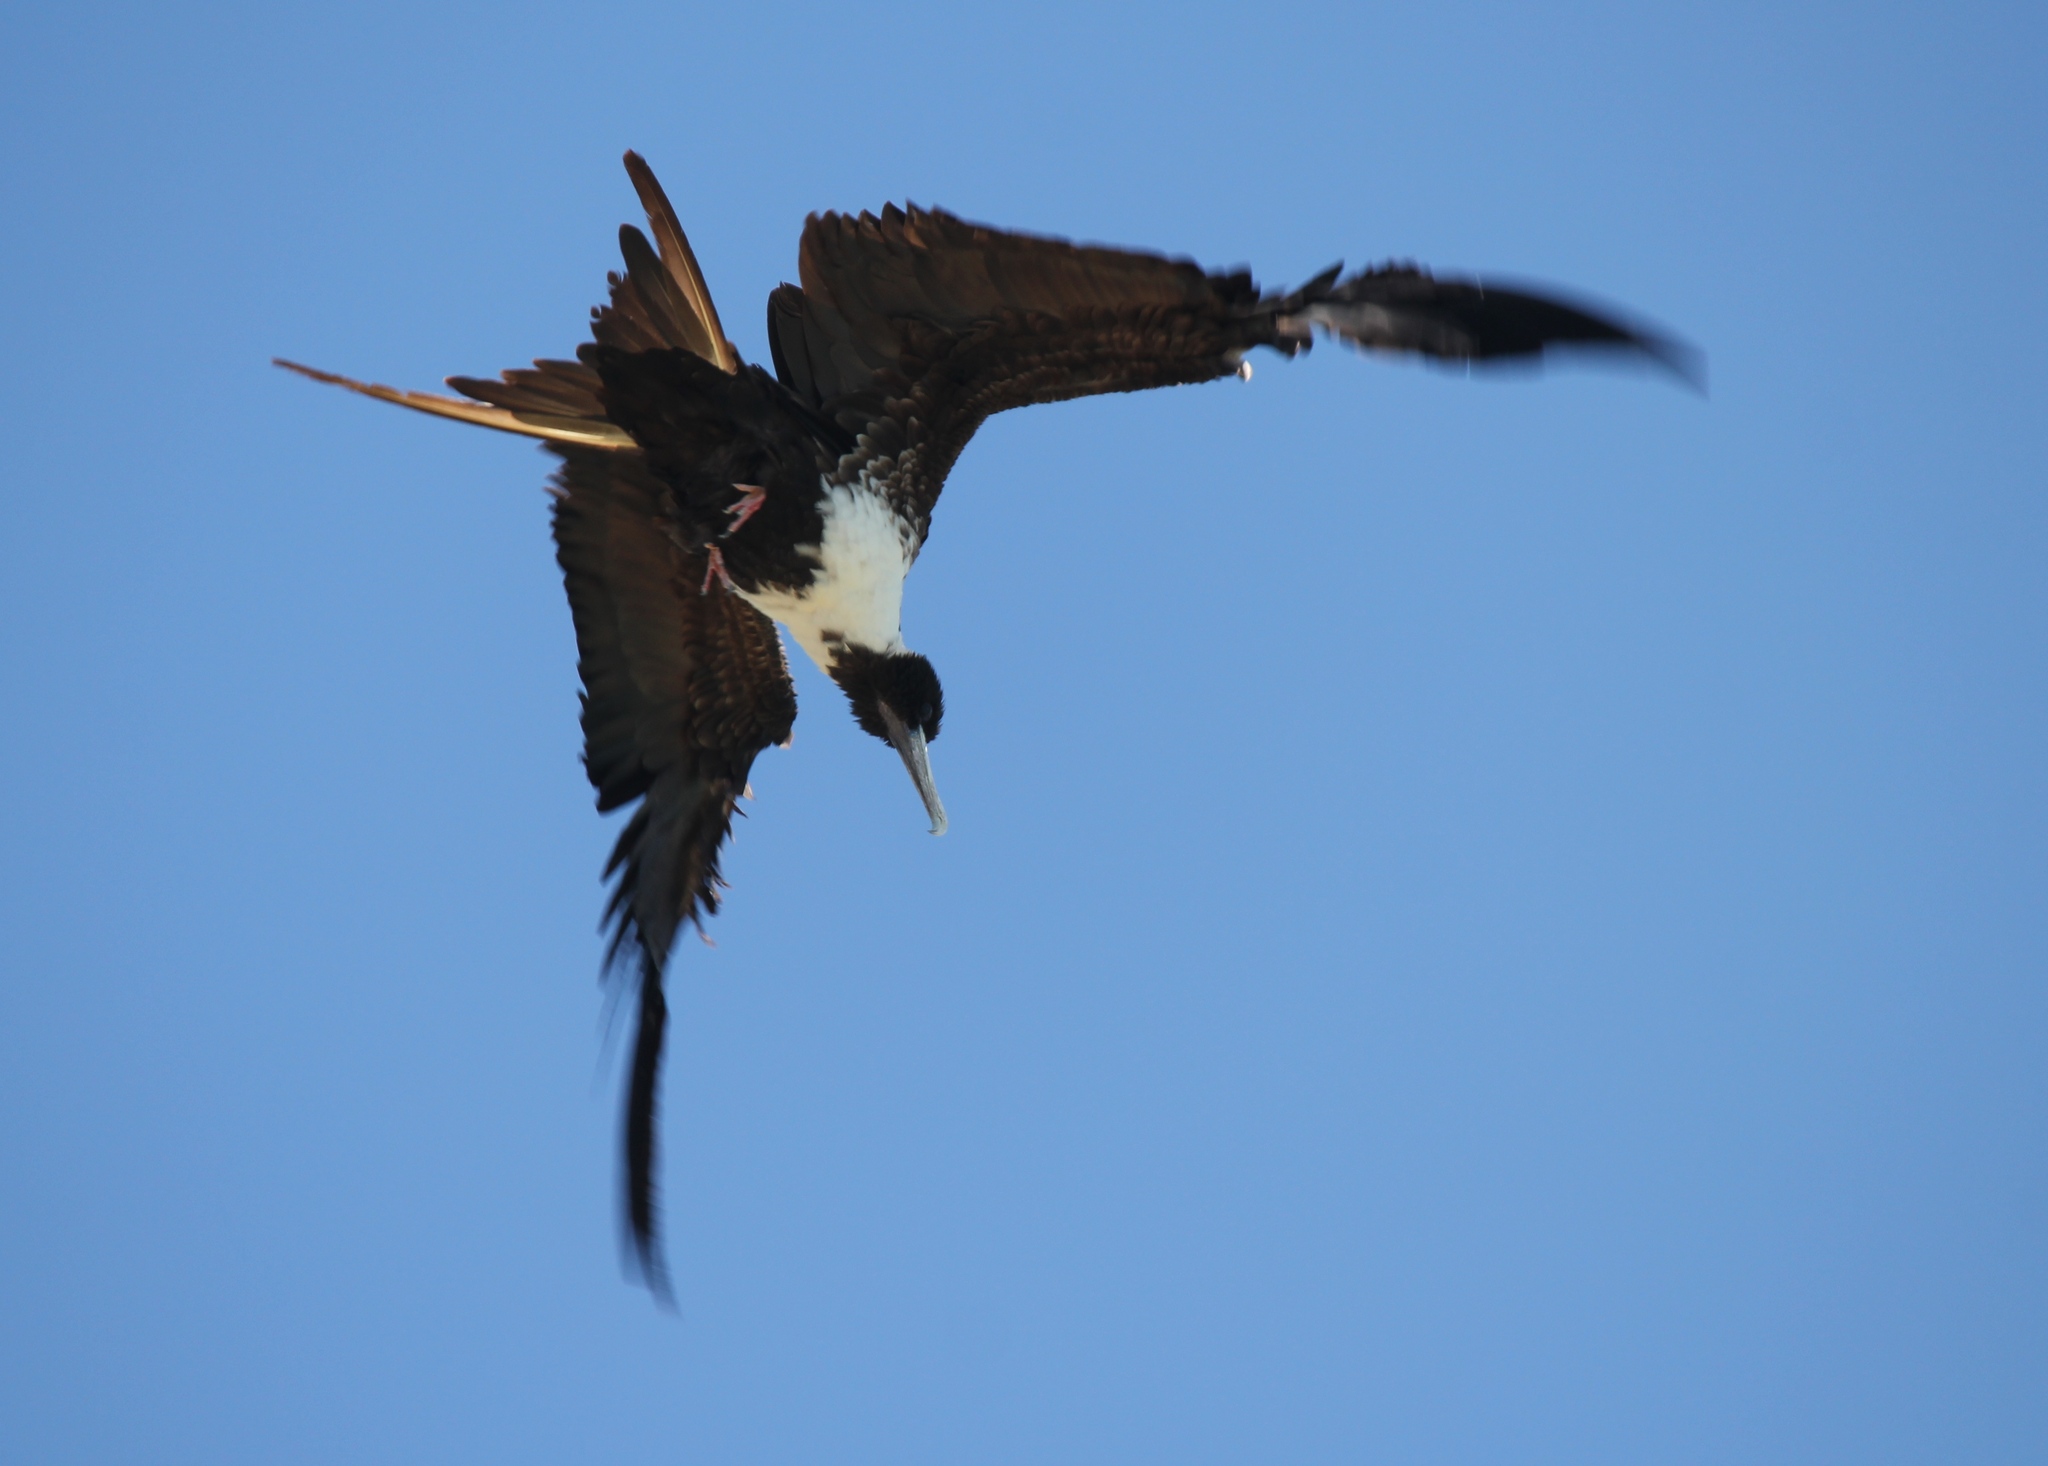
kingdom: Animalia
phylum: Chordata
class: Aves
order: Suliformes
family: Fregatidae
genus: Fregata
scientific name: Fregata magnificens
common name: Magnificent frigatebird
